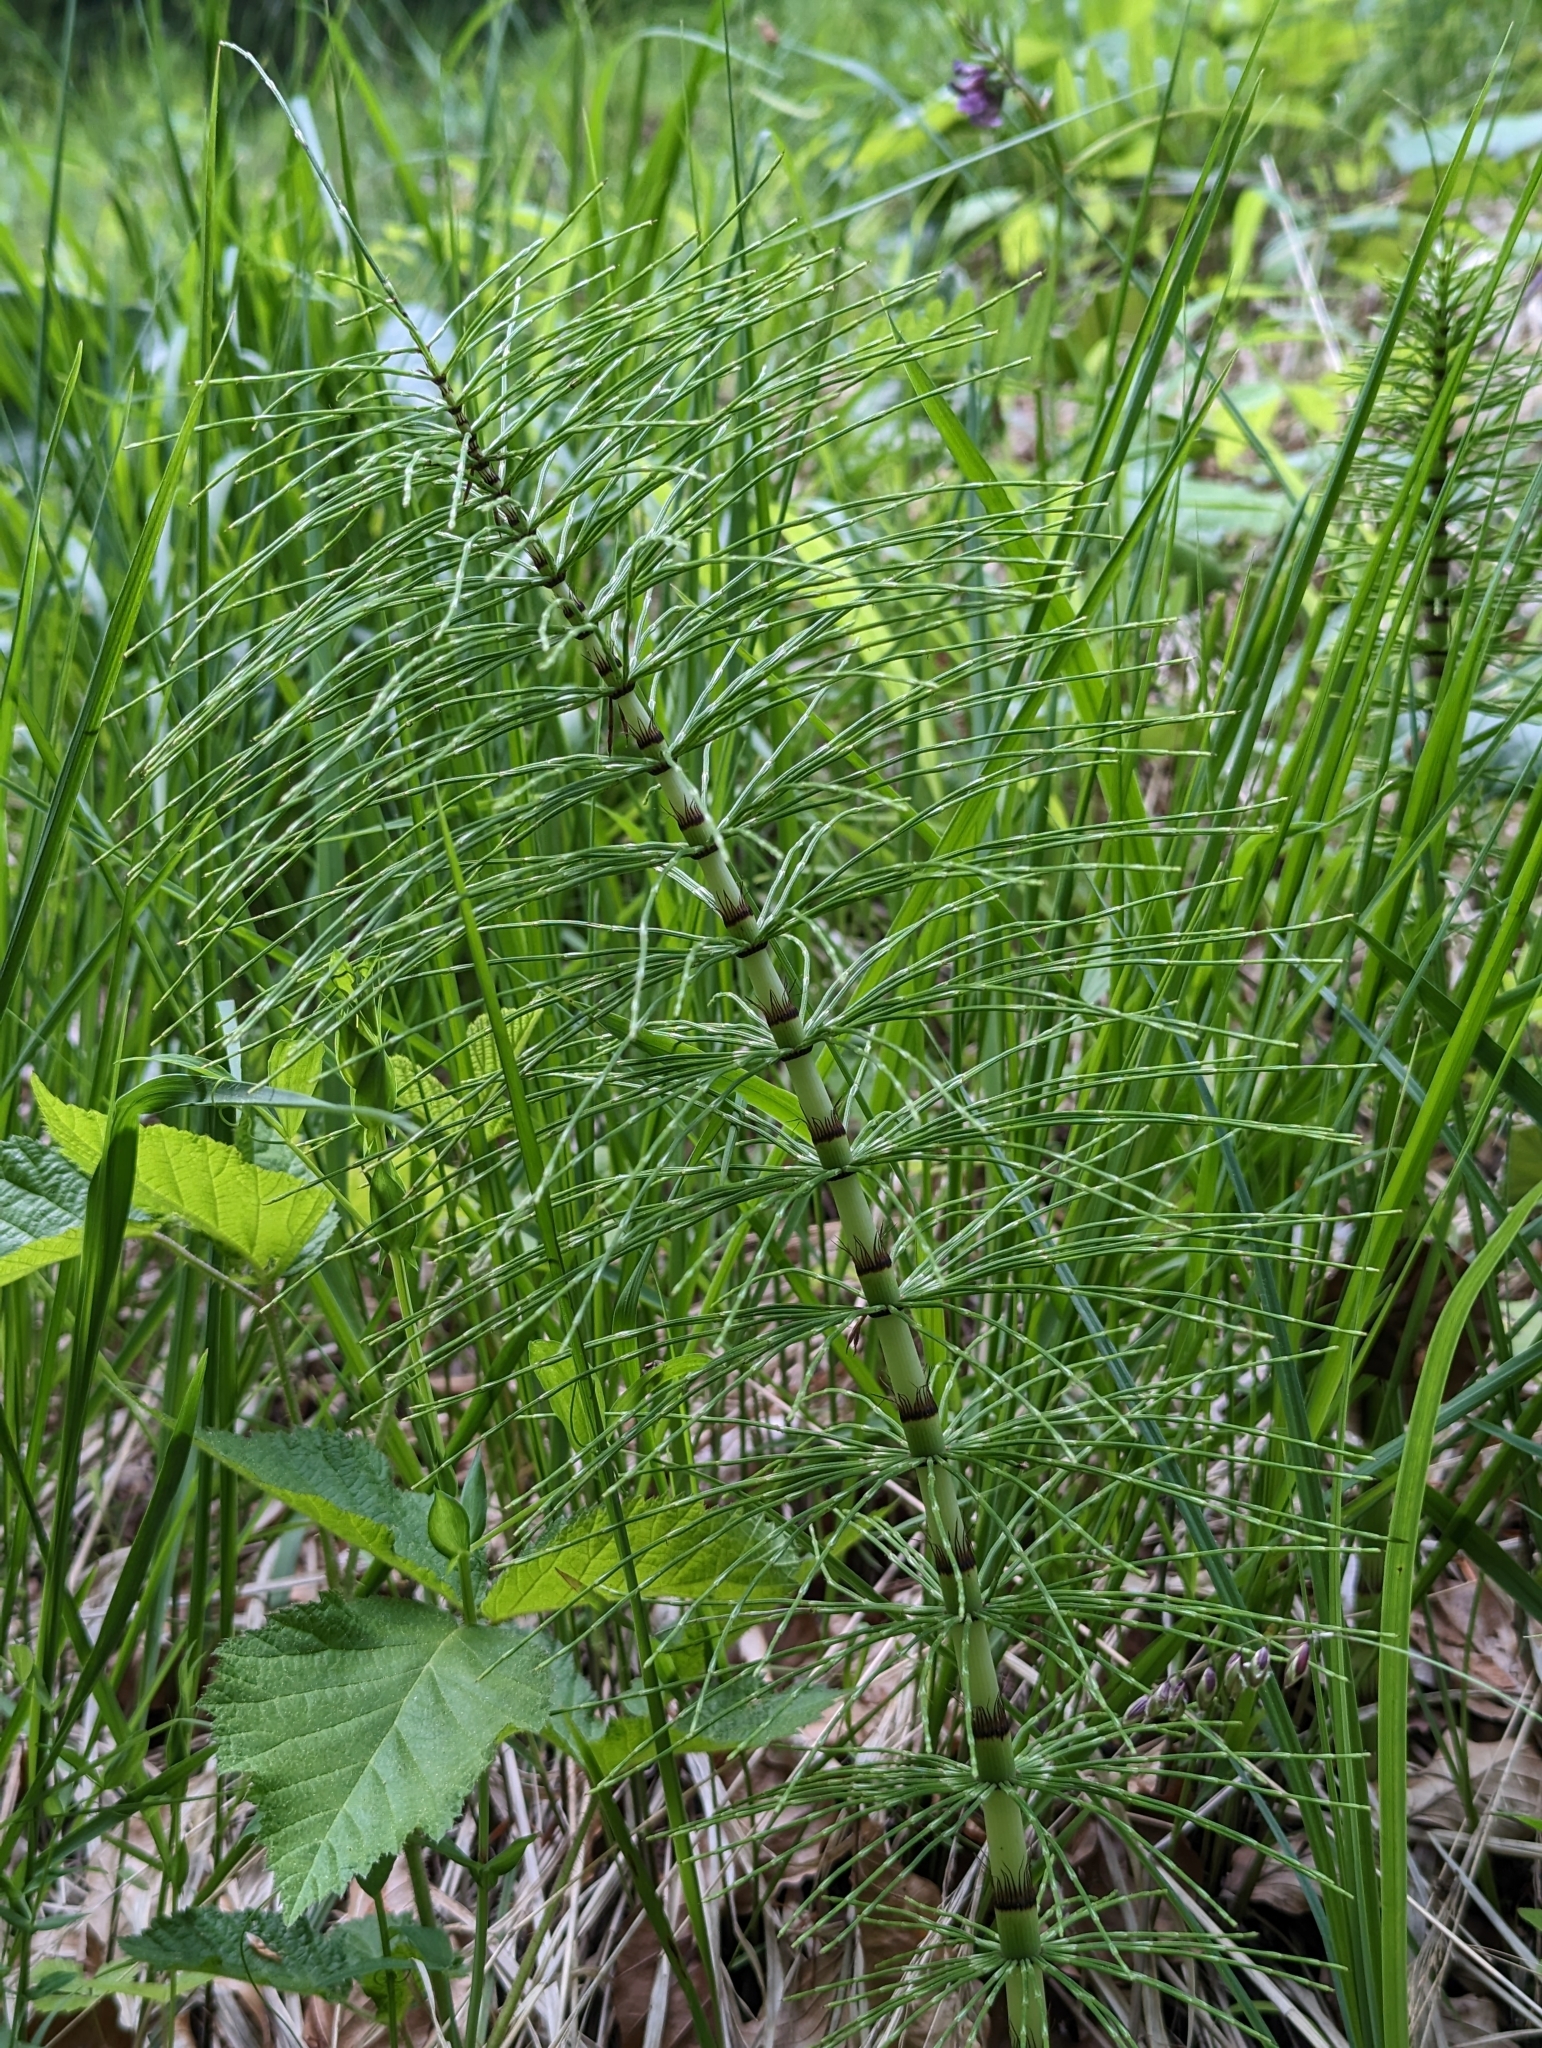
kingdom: Plantae
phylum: Tracheophyta
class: Polypodiopsida
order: Equisetales
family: Equisetaceae
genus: Equisetum
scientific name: Equisetum telmateia
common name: Great horsetail
